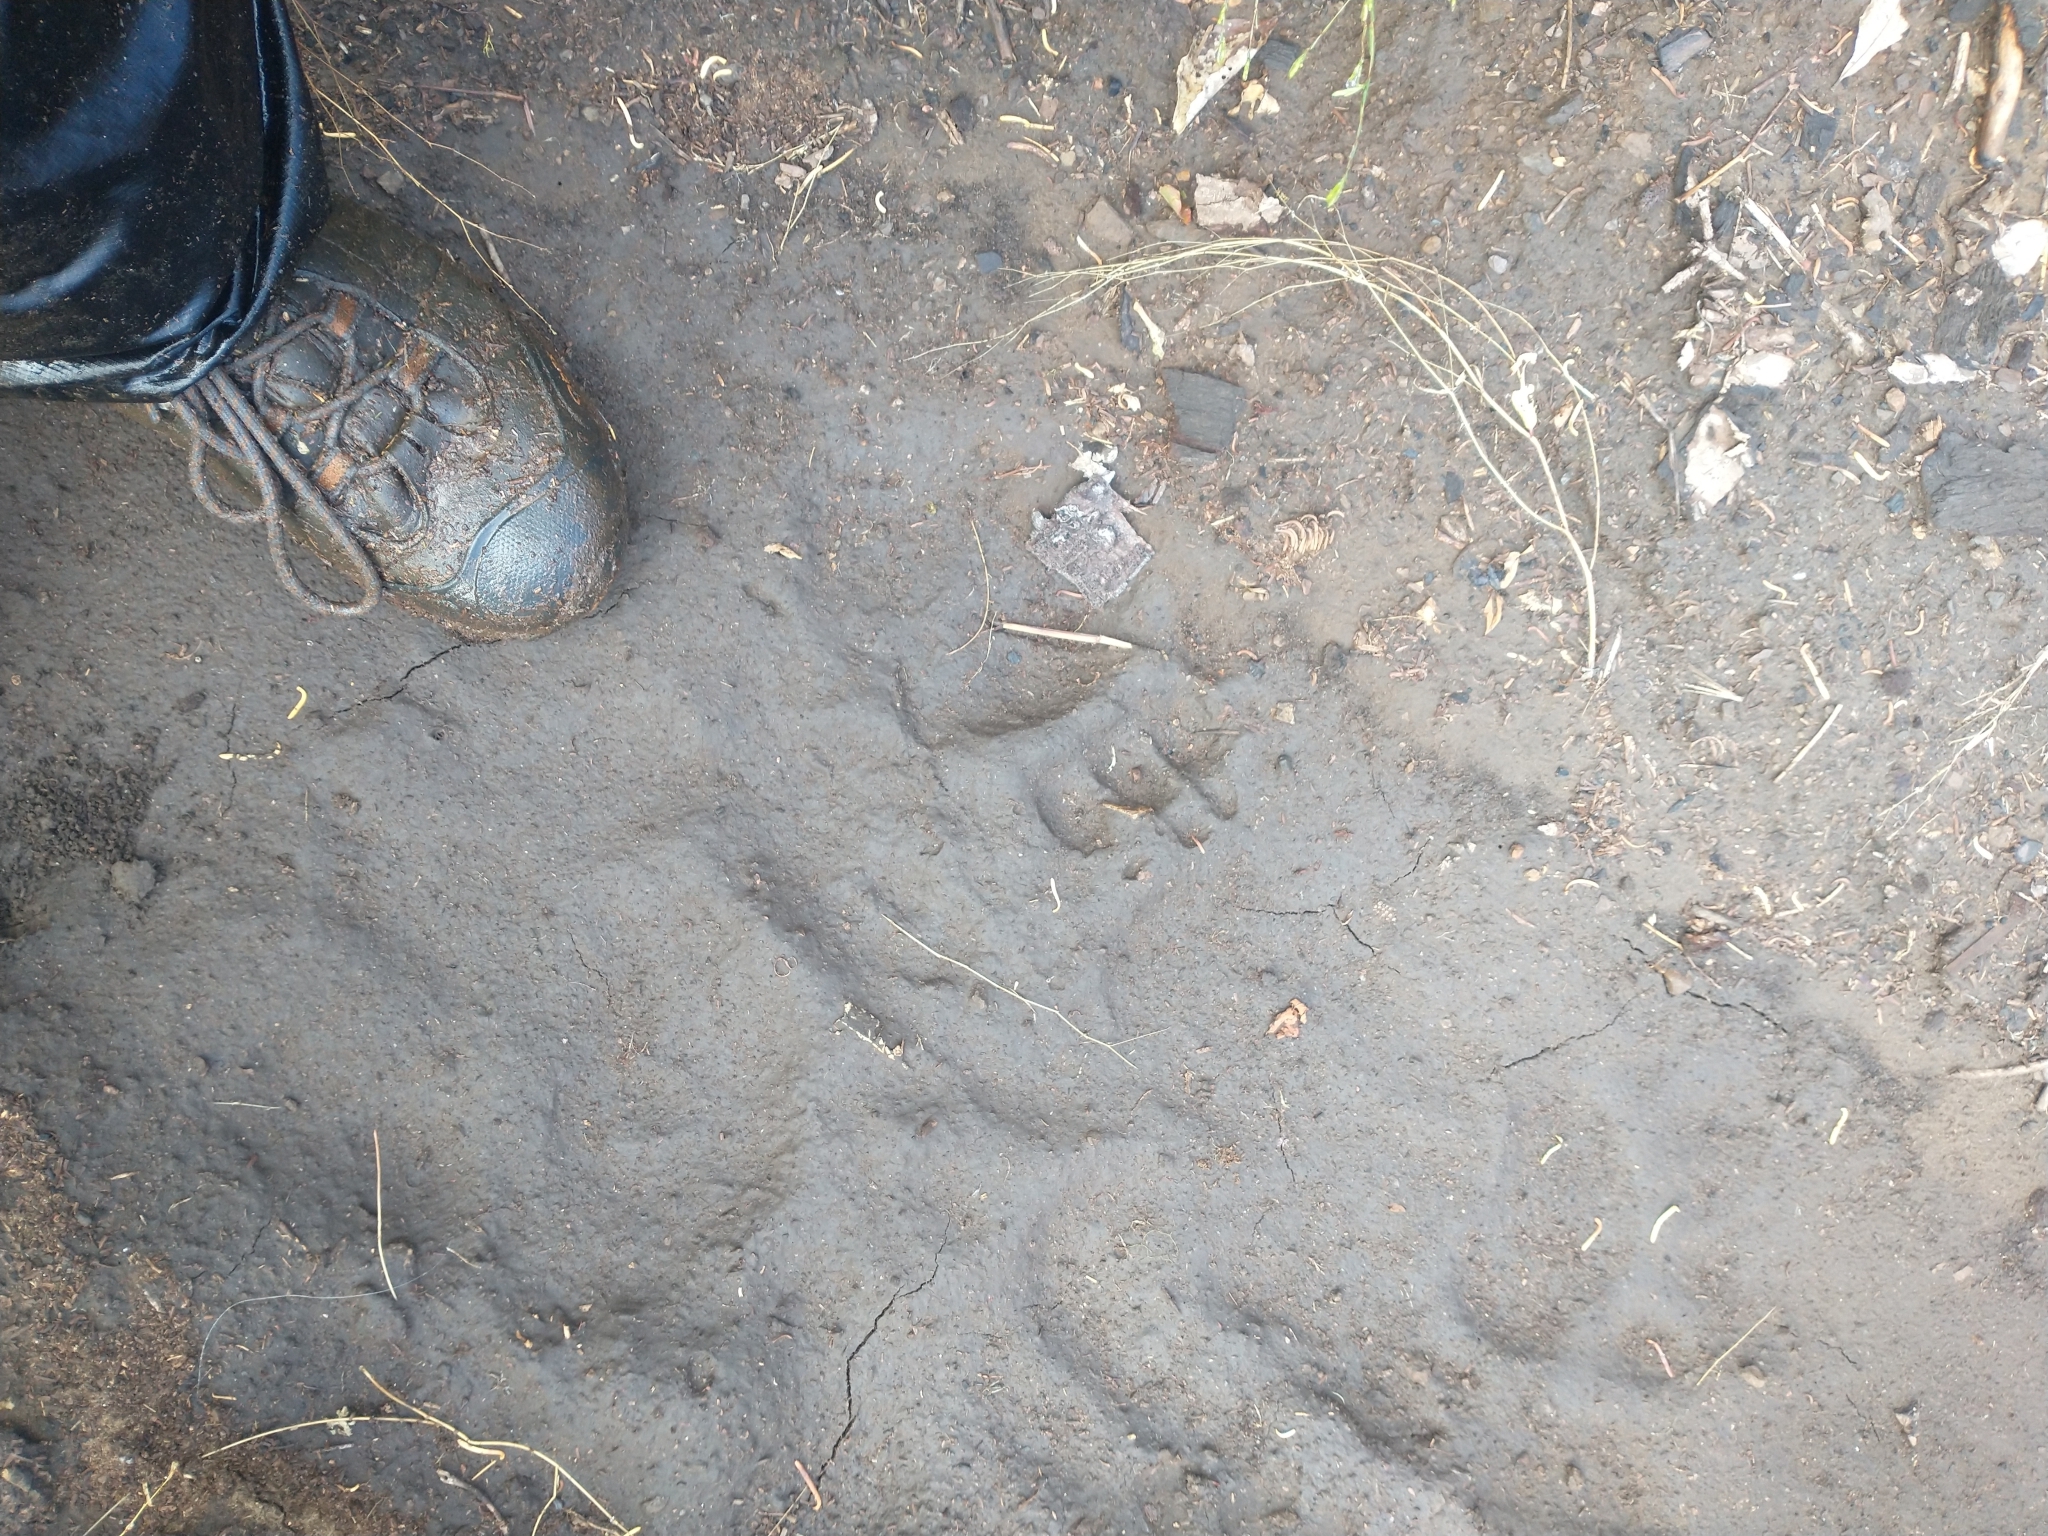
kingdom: Animalia
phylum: Chordata
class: Mammalia
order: Carnivora
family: Ursidae
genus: Ursus
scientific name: Ursus americanus
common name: American black bear
